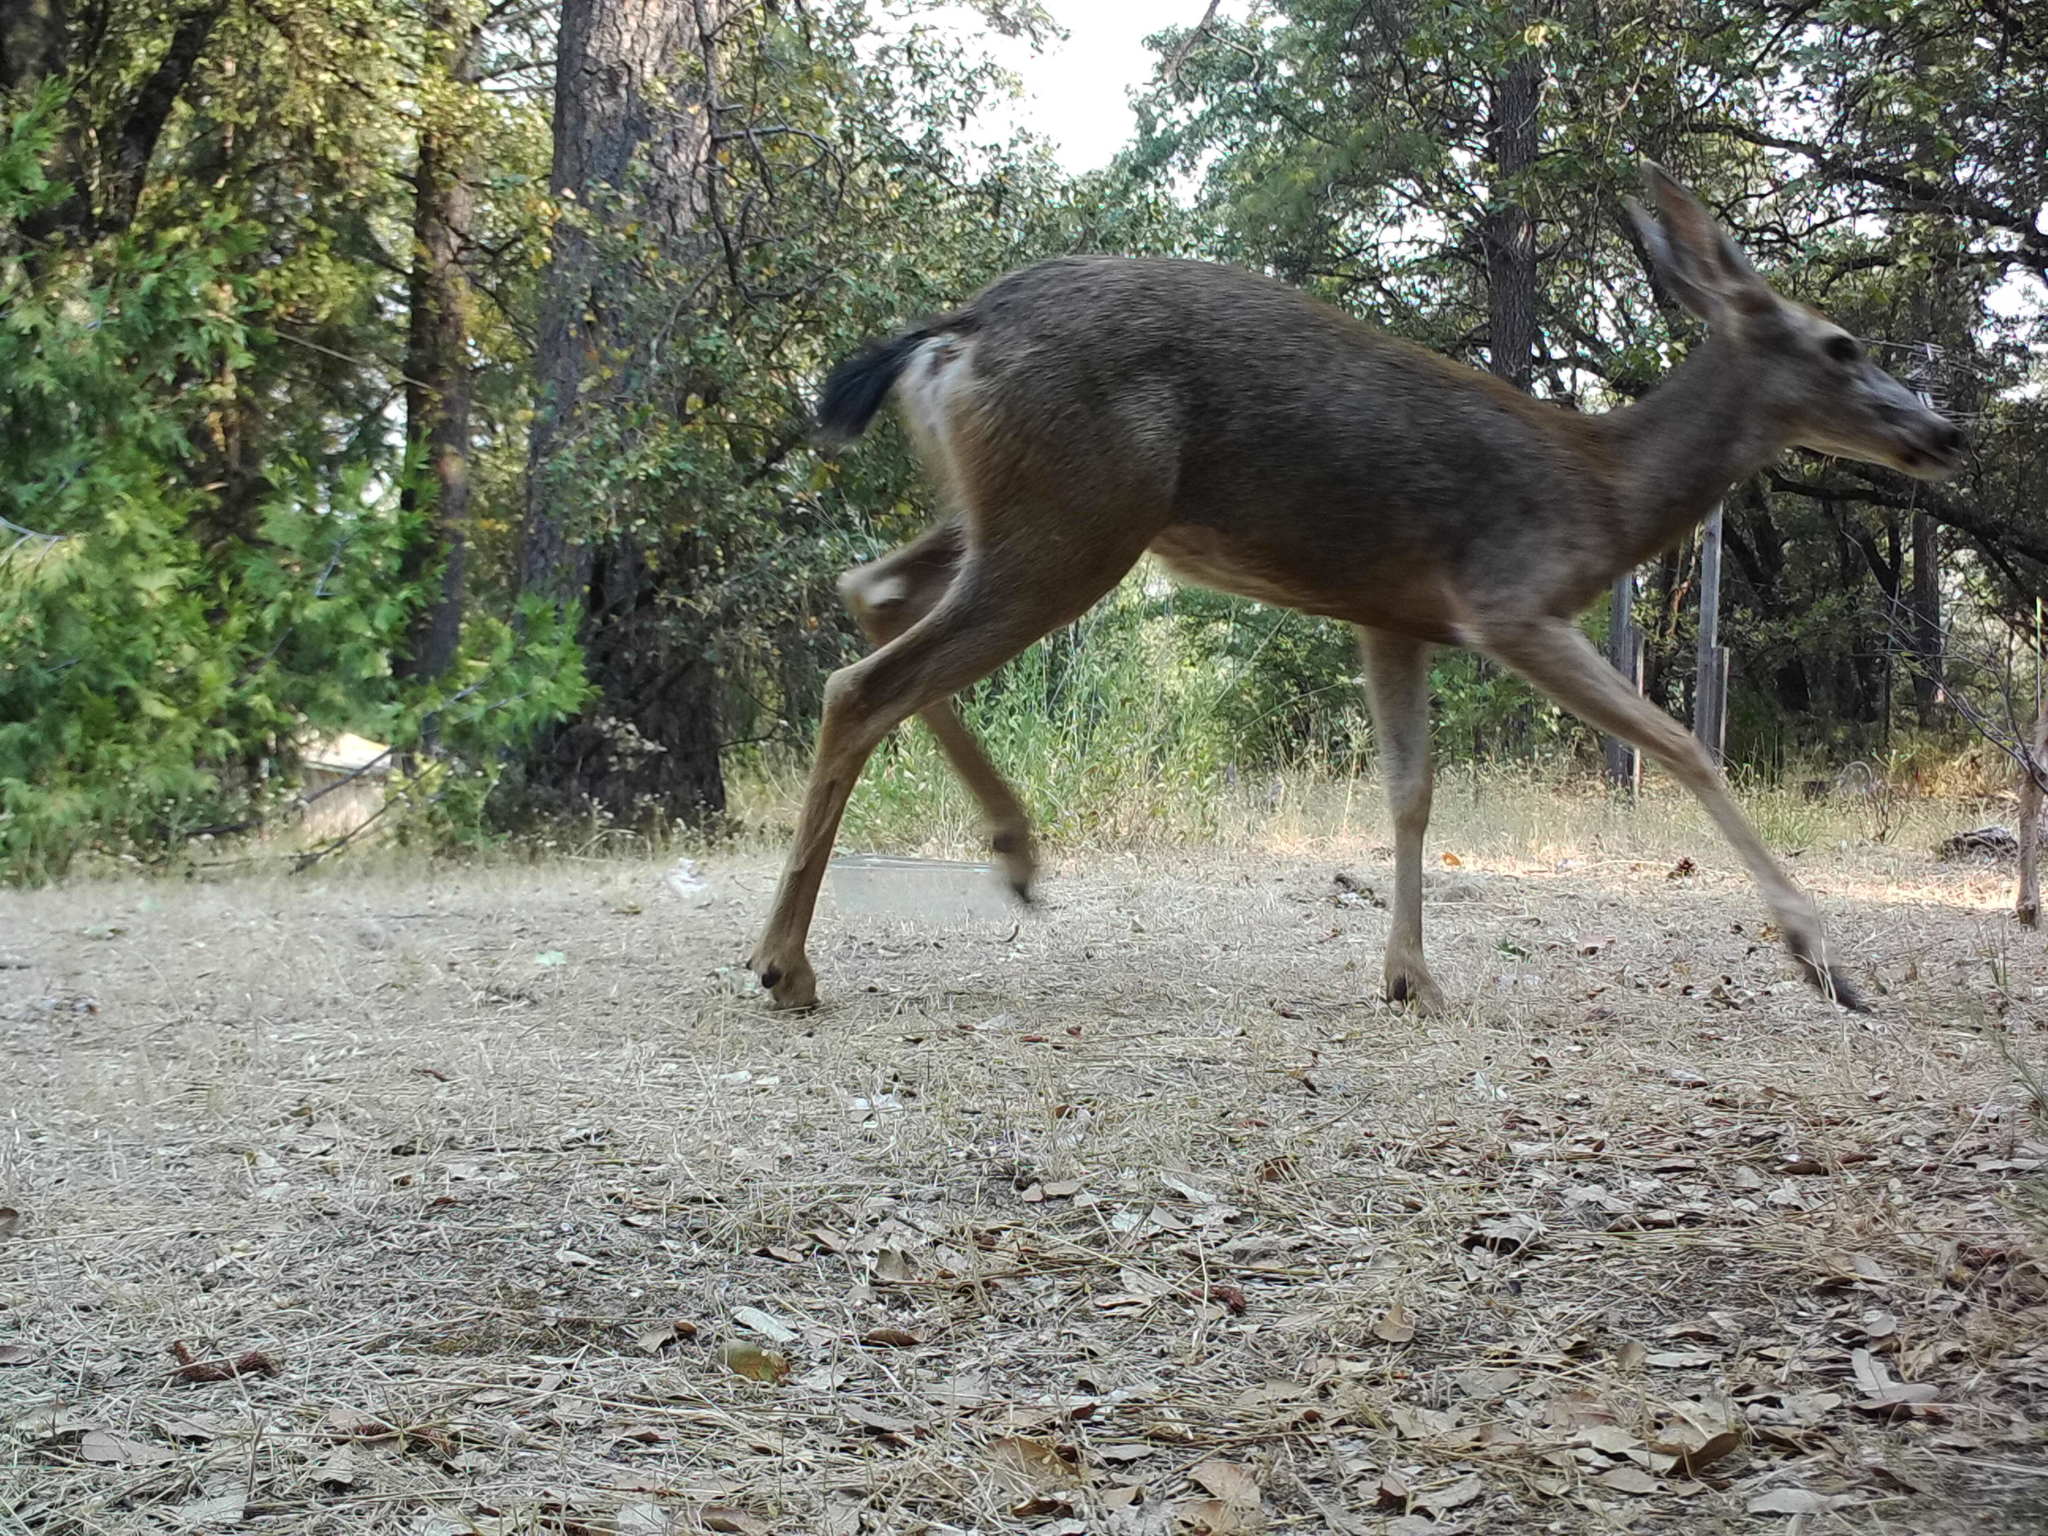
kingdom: Animalia
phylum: Chordata
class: Mammalia
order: Artiodactyla
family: Cervidae
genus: Odocoileus
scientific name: Odocoileus hemionus
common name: Mule deer
